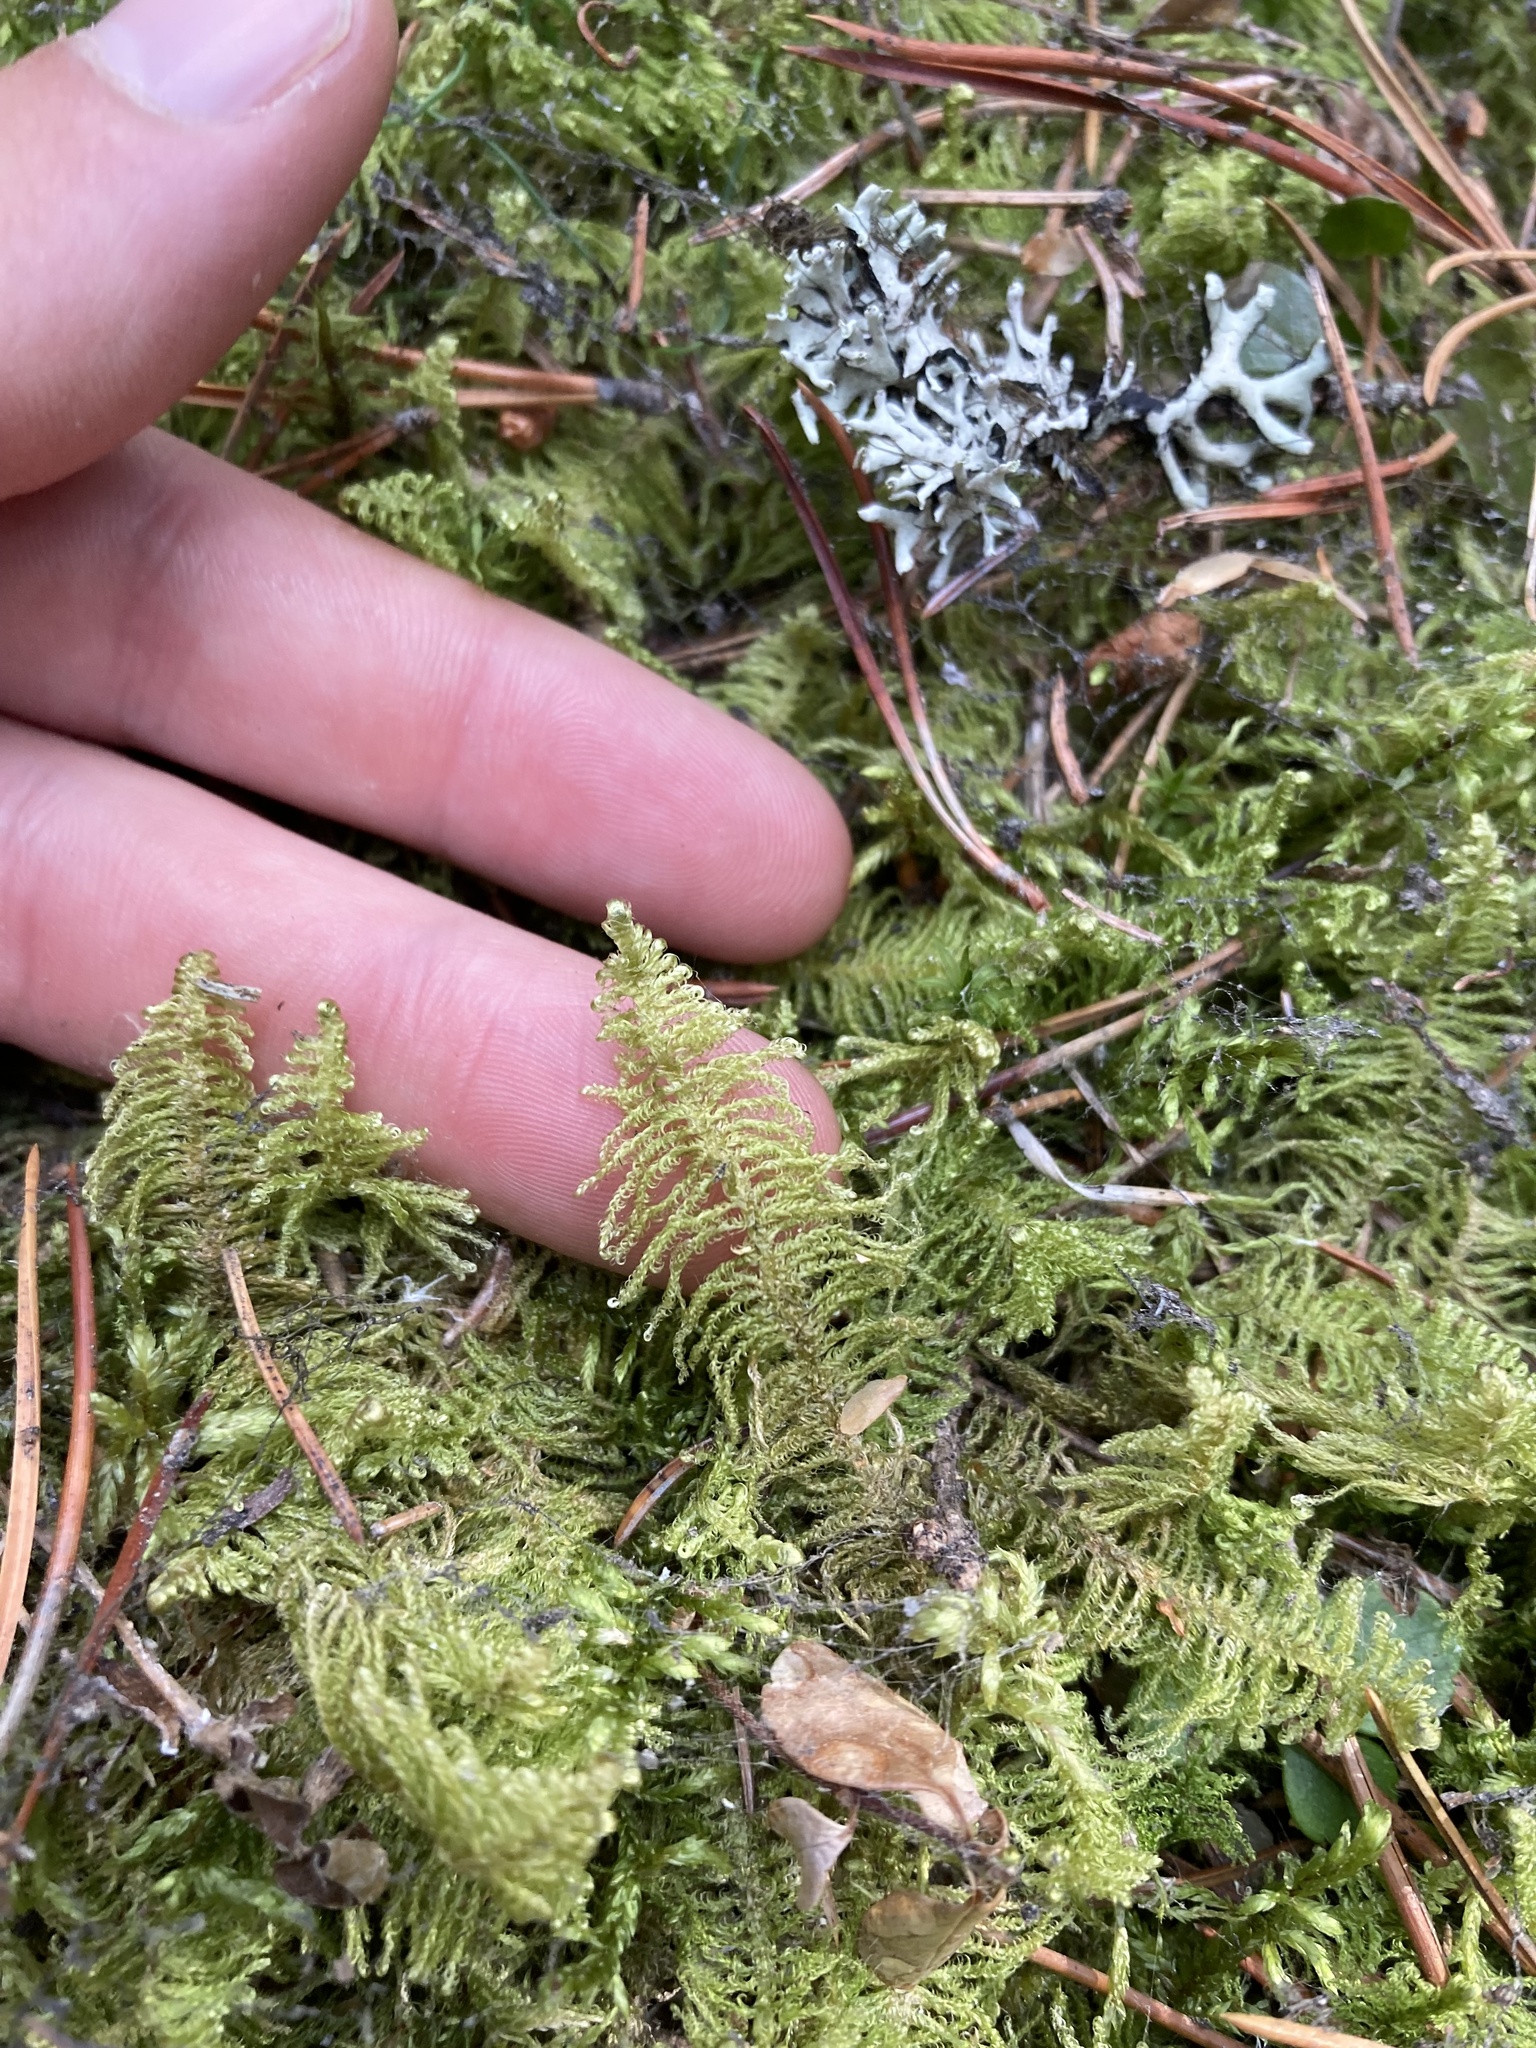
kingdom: Plantae
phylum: Bryophyta
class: Bryopsida
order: Hypnales
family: Pylaisiaceae
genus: Ptilium
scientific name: Ptilium crista-castrensis
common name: Knight's plume moss
